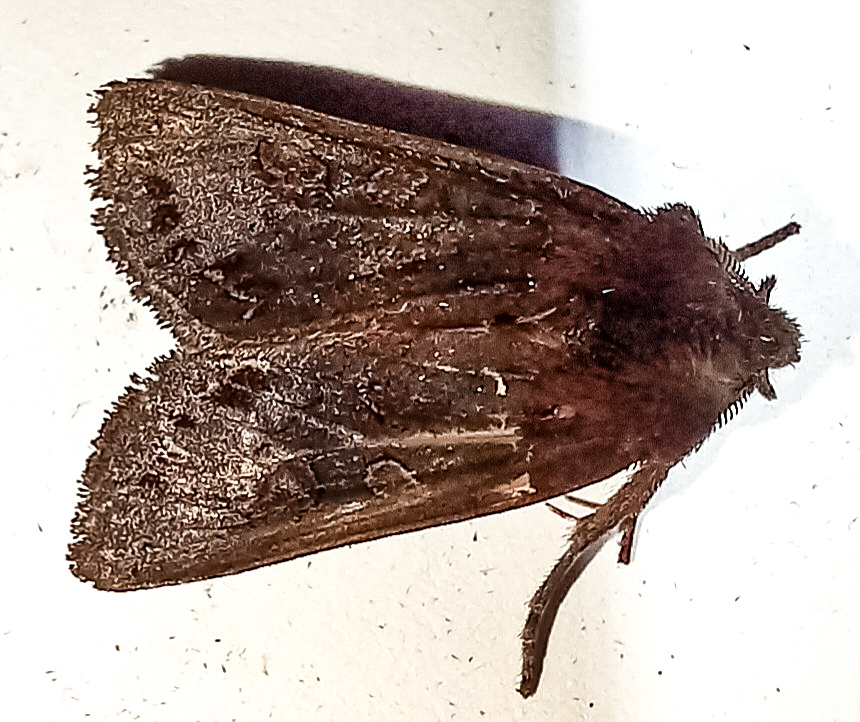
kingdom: Animalia
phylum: Arthropoda
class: Insecta
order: Lepidoptera
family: Noctuidae
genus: Ichneutica
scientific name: Ichneutica
